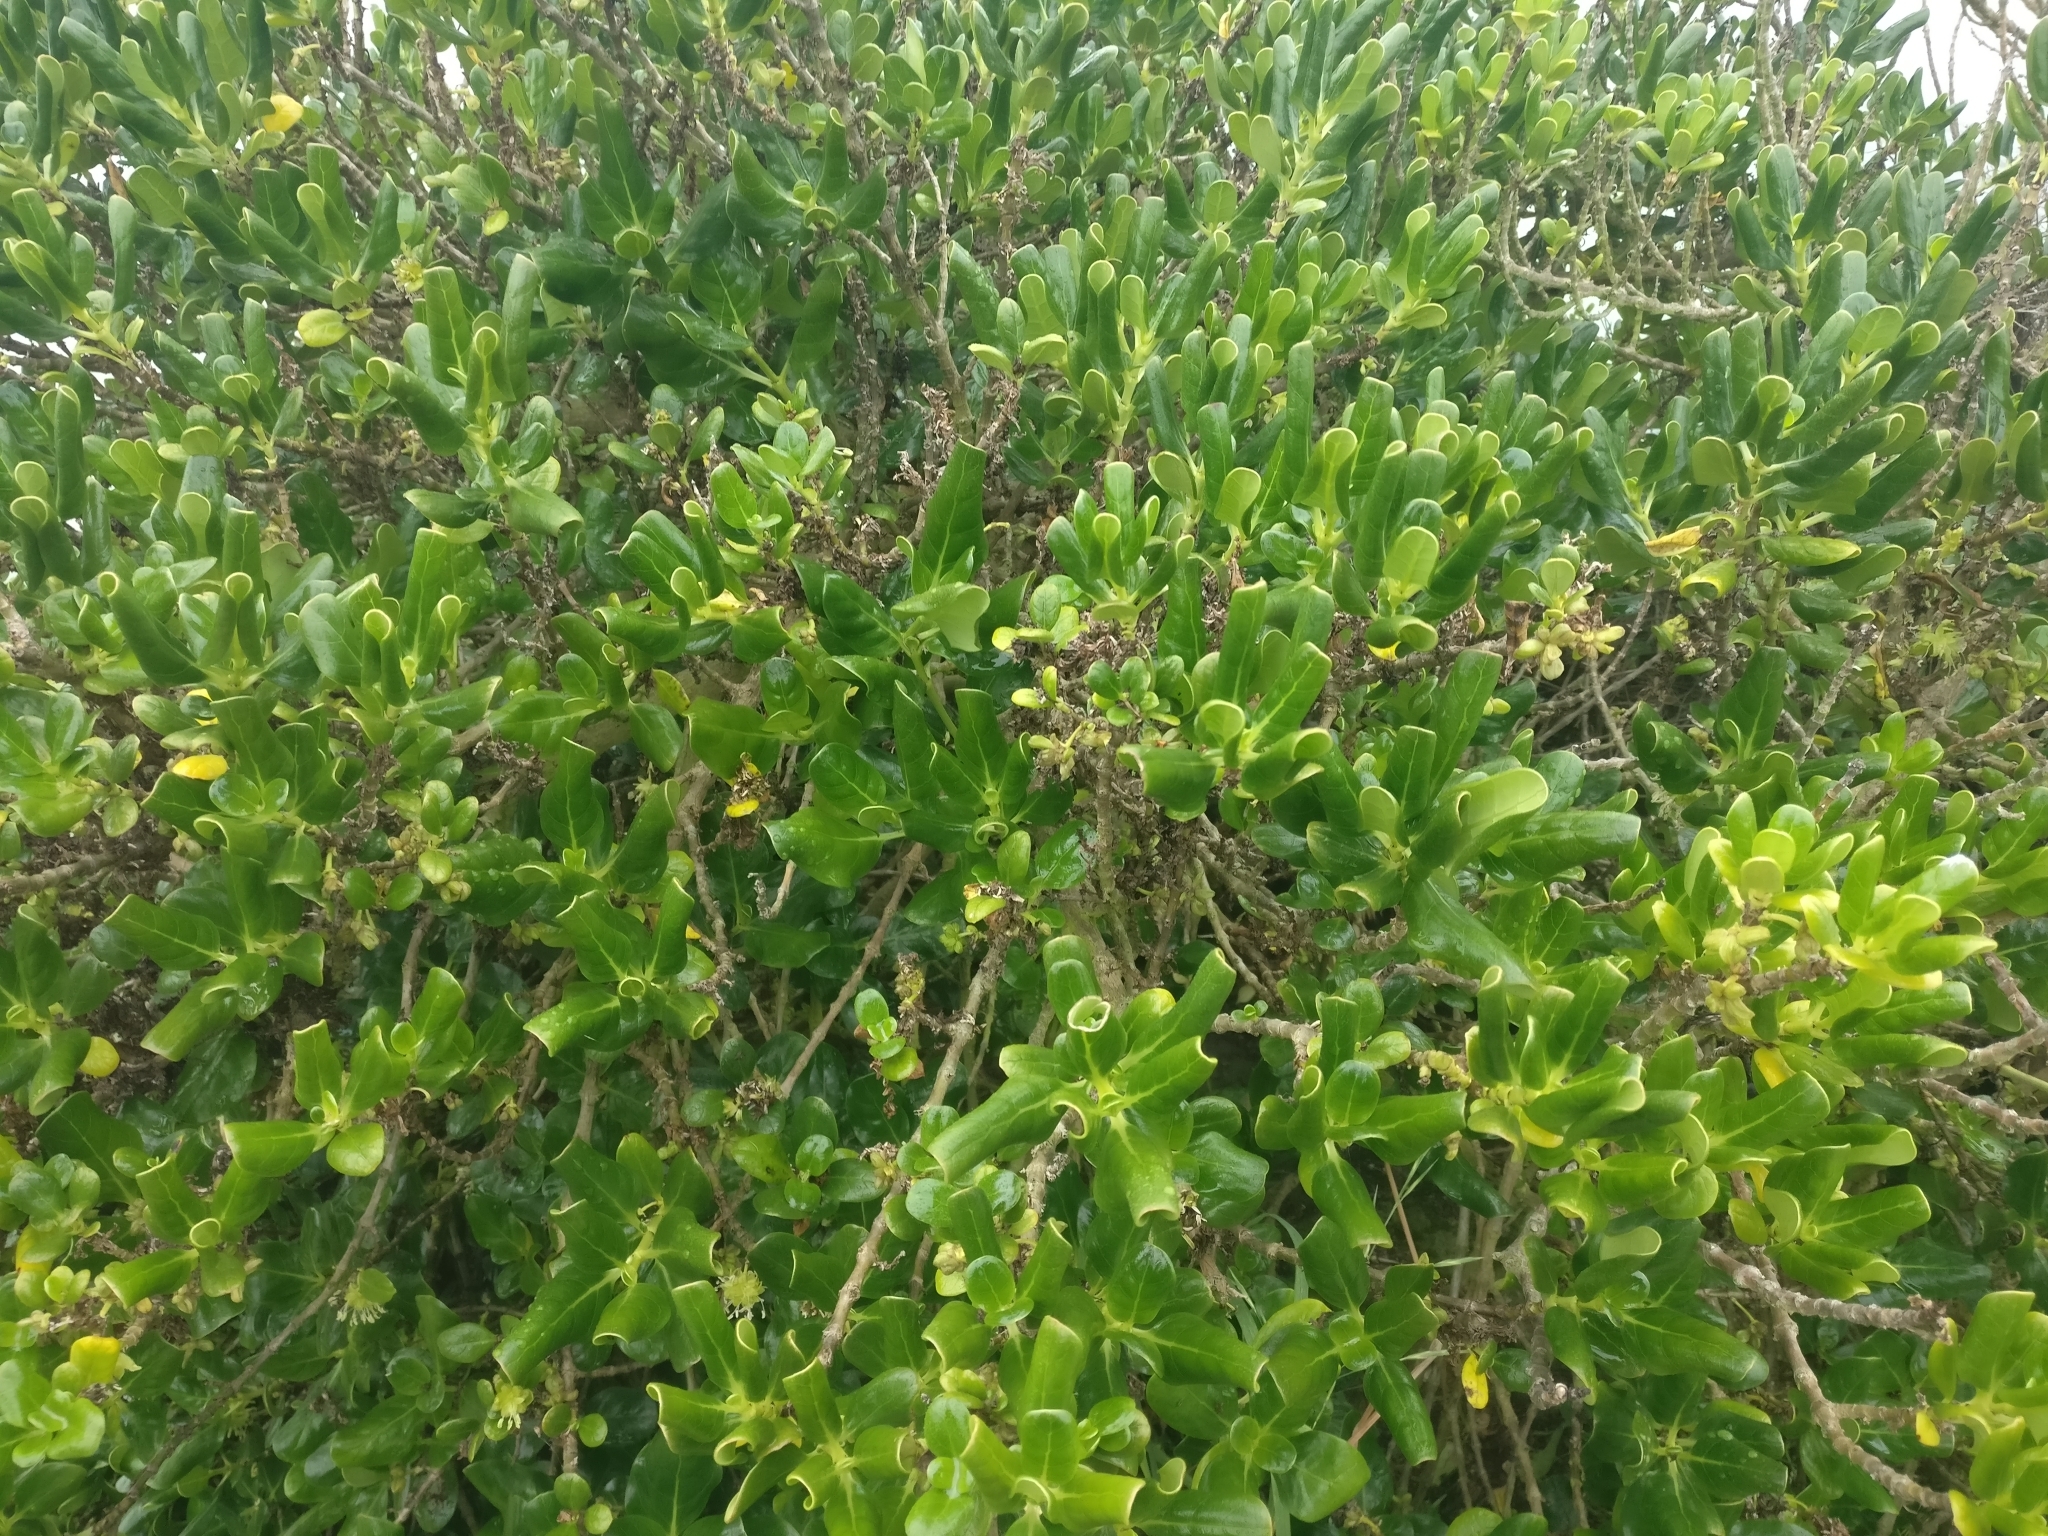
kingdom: Plantae
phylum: Tracheophyta
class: Magnoliopsida
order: Gentianales
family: Rubiaceae
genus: Coprosma
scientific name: Coprosma repens
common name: Tree bedstraw
